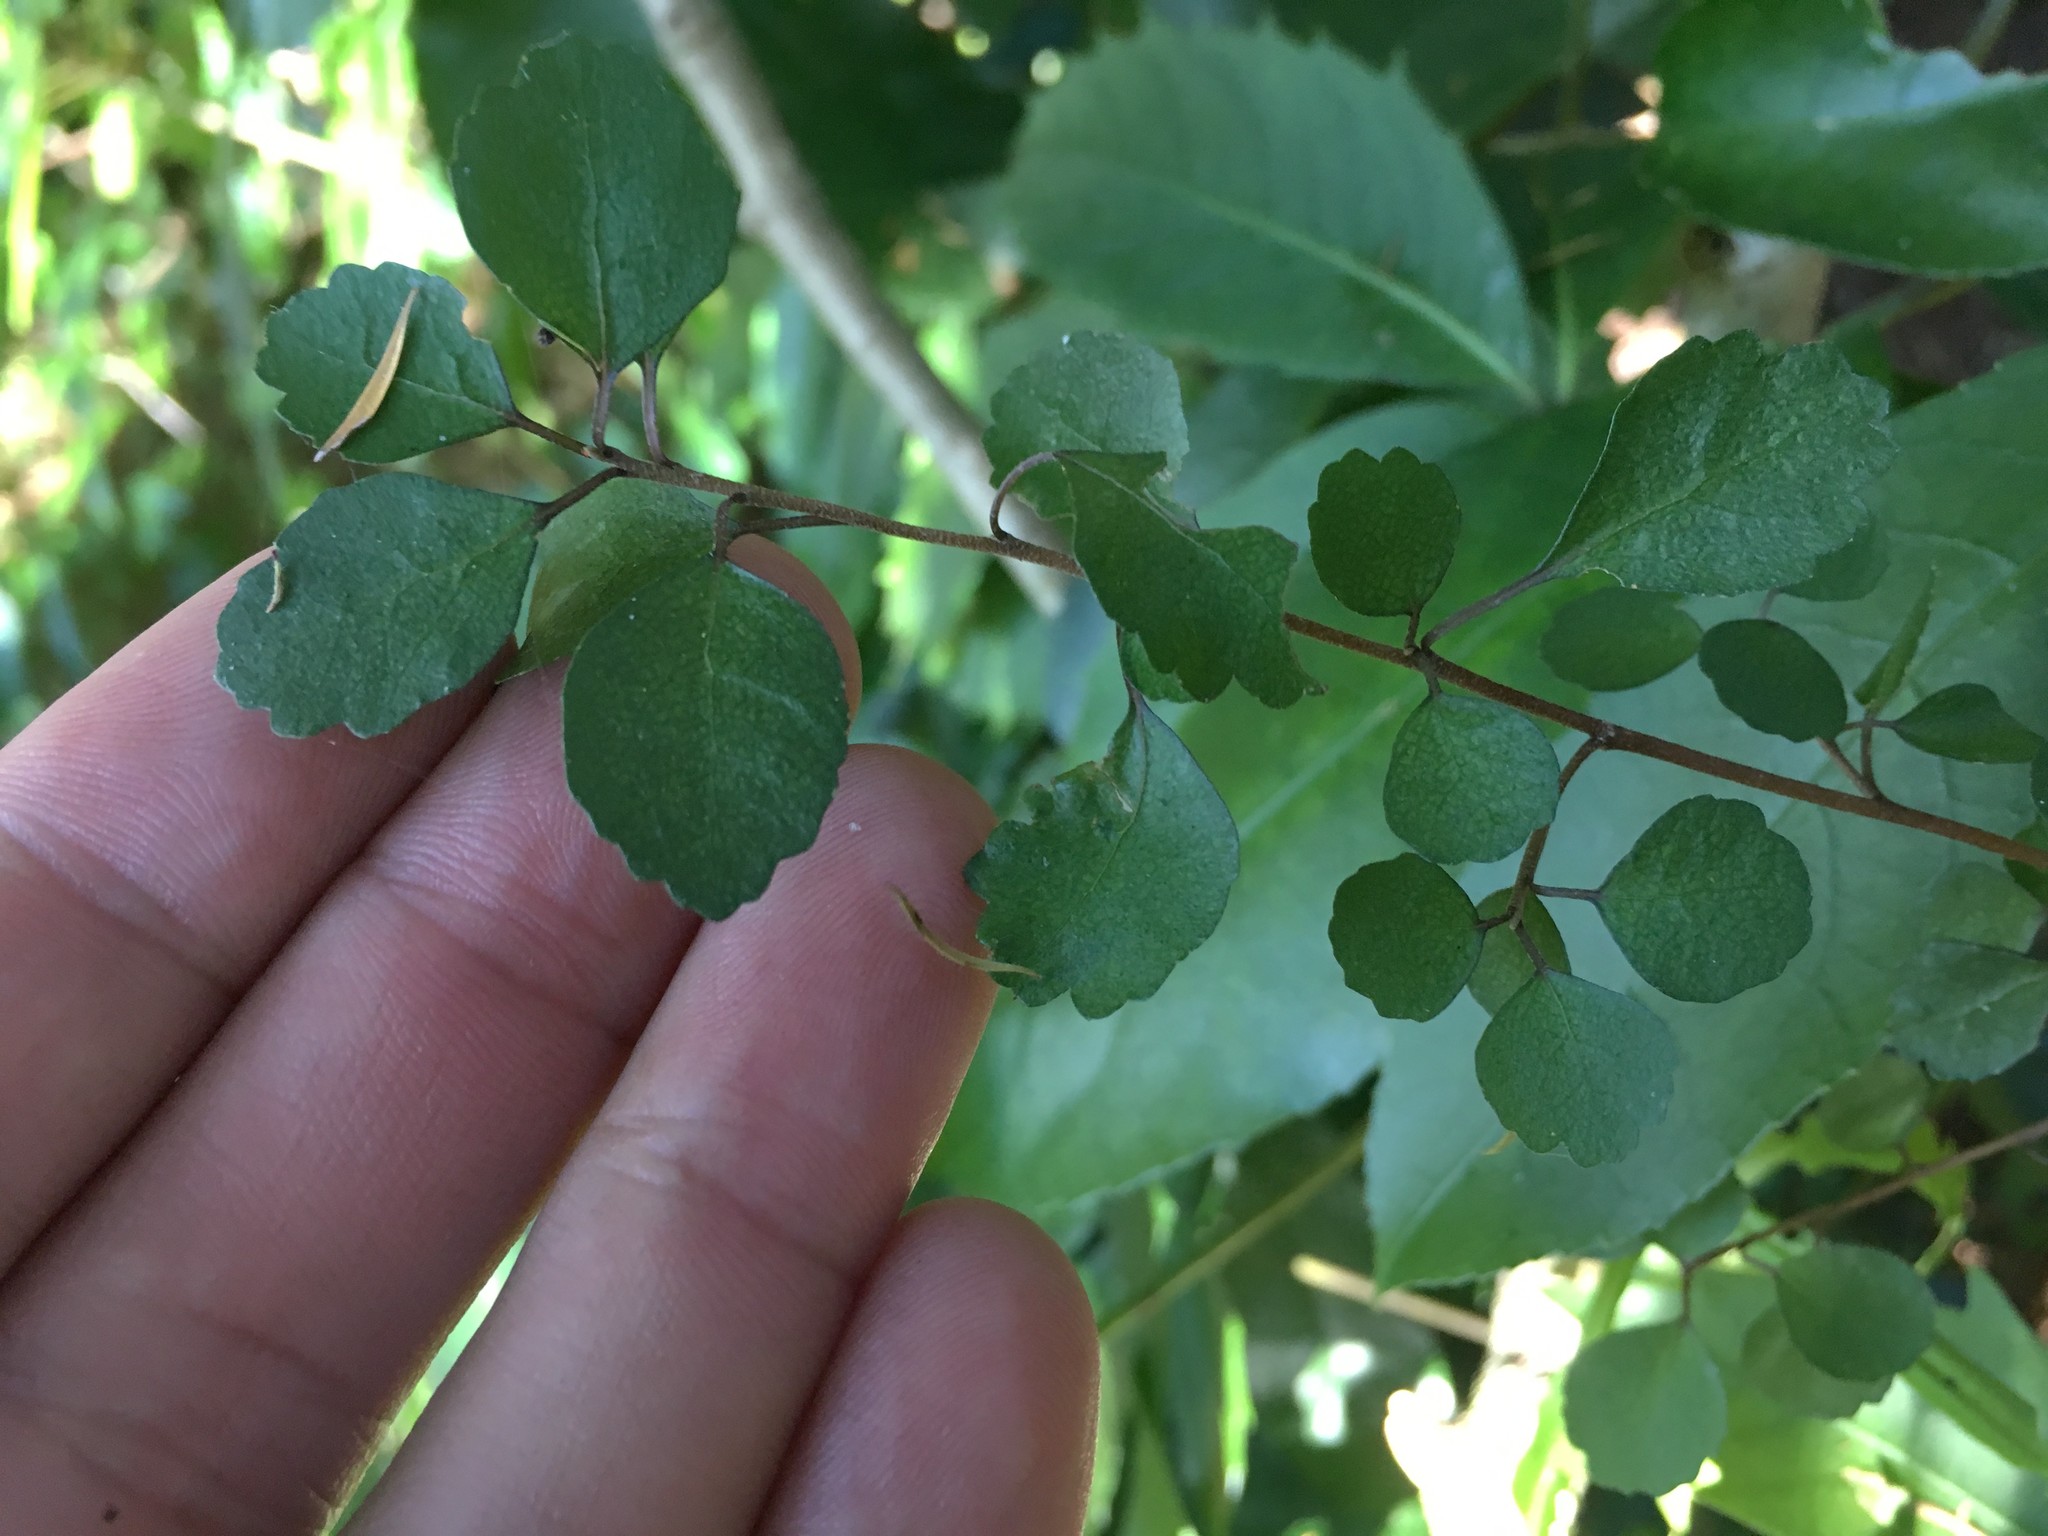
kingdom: Plantae
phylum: Tracheophyta
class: Magnoliopsida
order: Malpighiales
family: Violaceae
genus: Melicytus
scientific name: Melicytus micranthus
